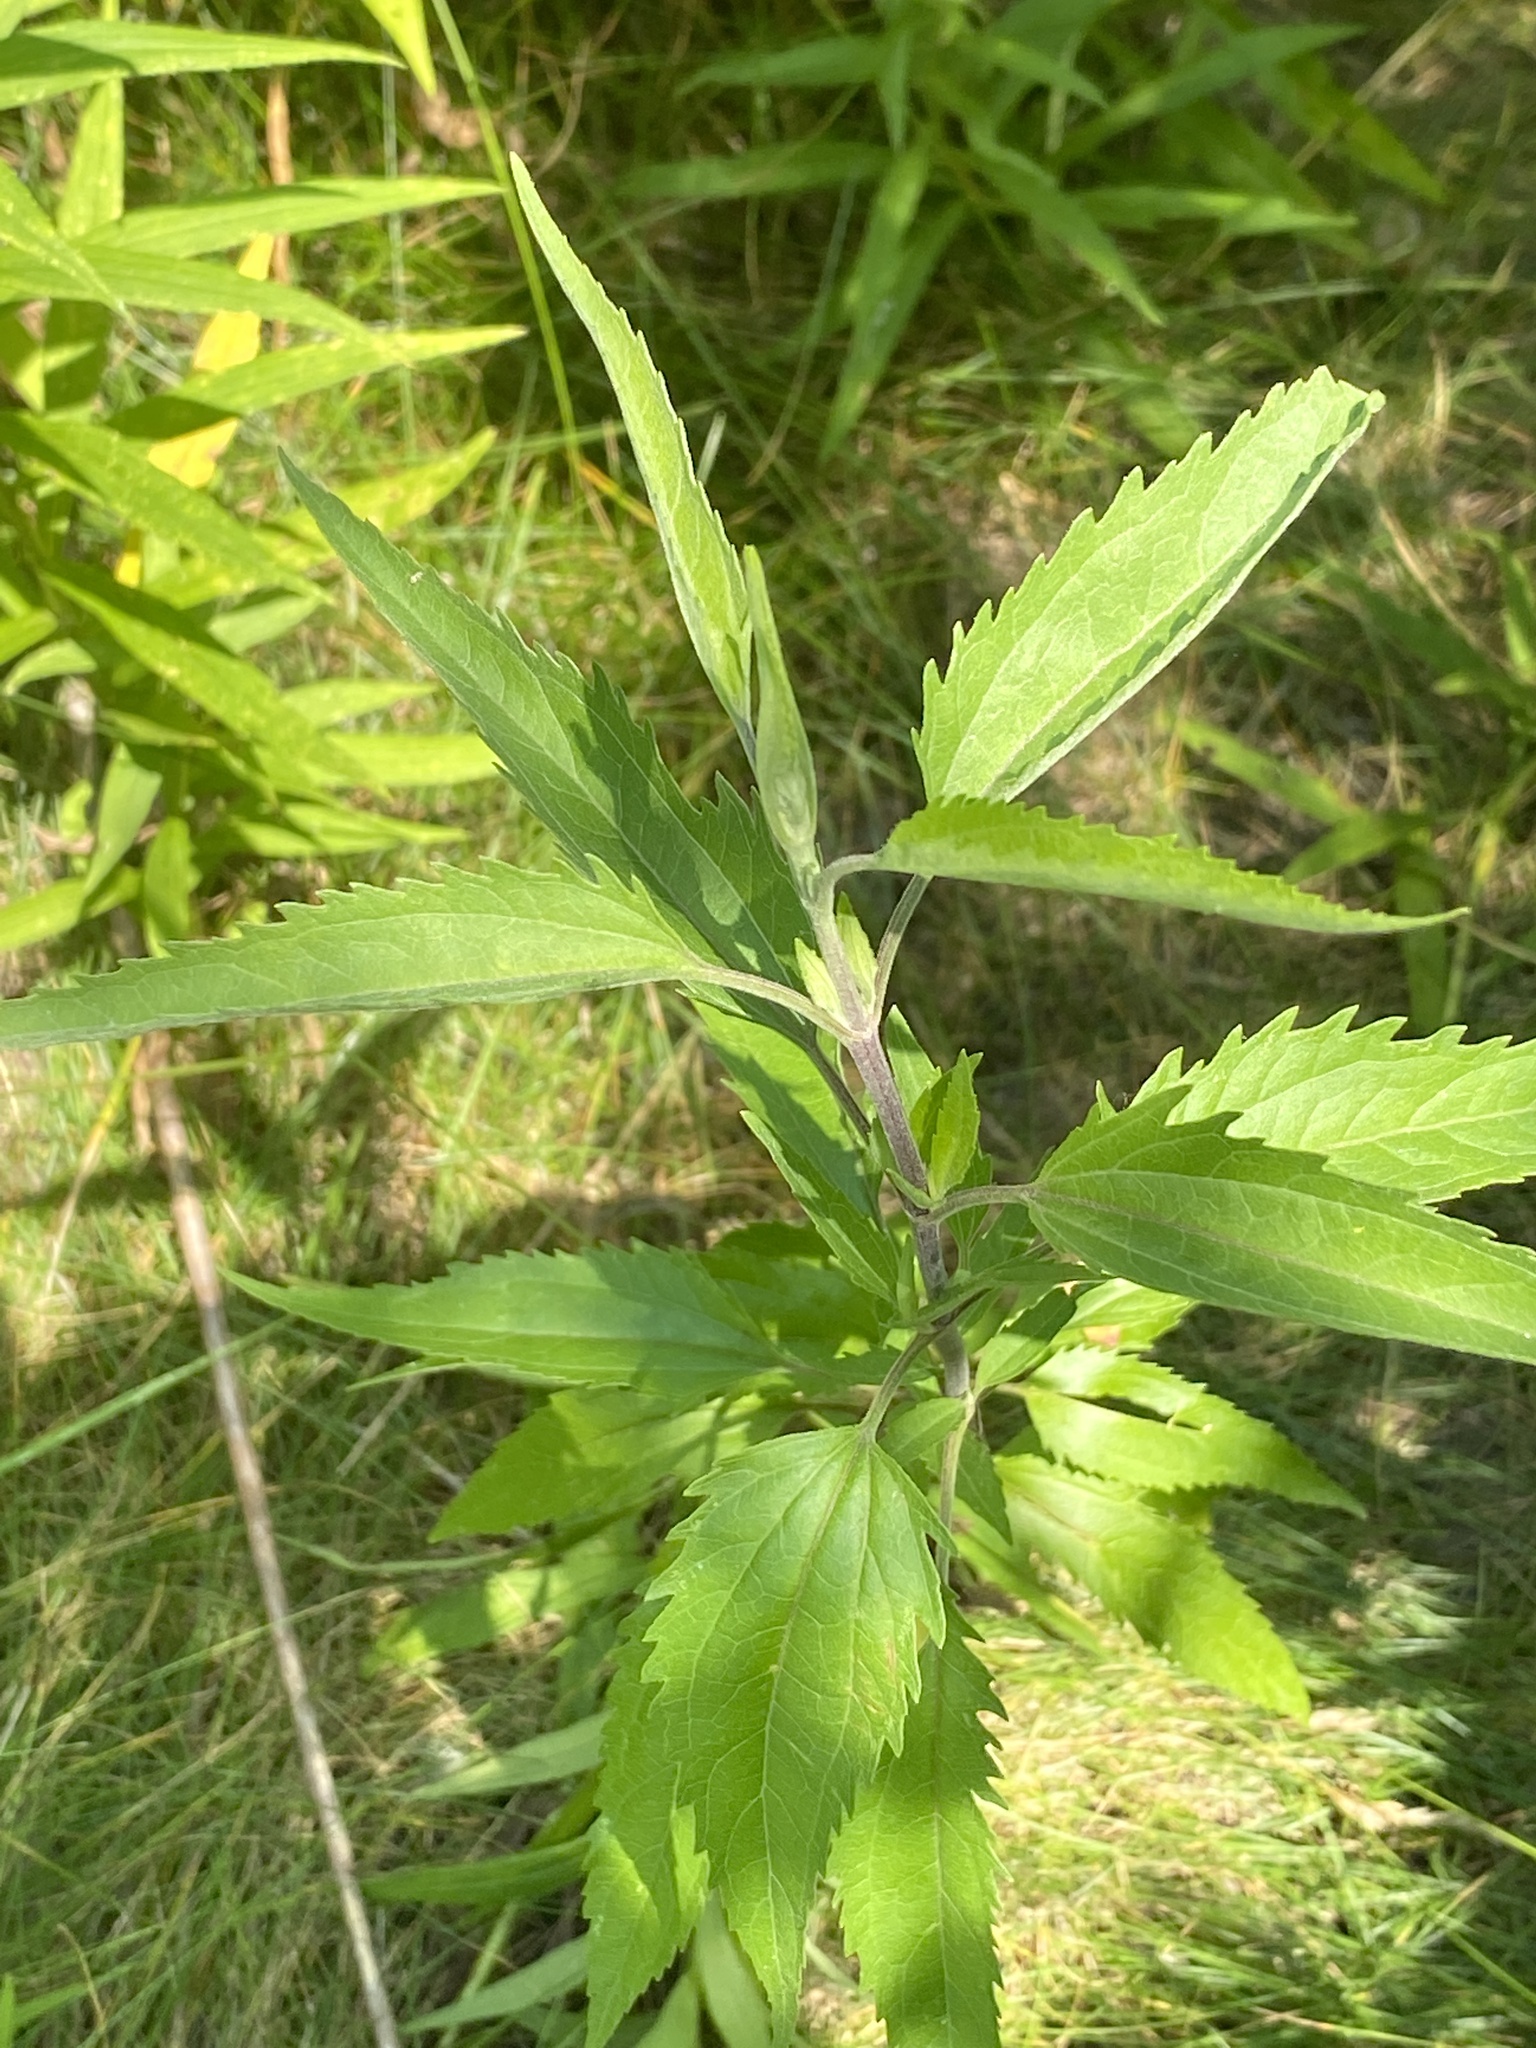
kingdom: Plantae
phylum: Tracheophyta
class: Magnoliopsida
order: Asterales
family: Asteraceae
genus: Eupatorium
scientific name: Eupatorium serotinum
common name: Late boneset
